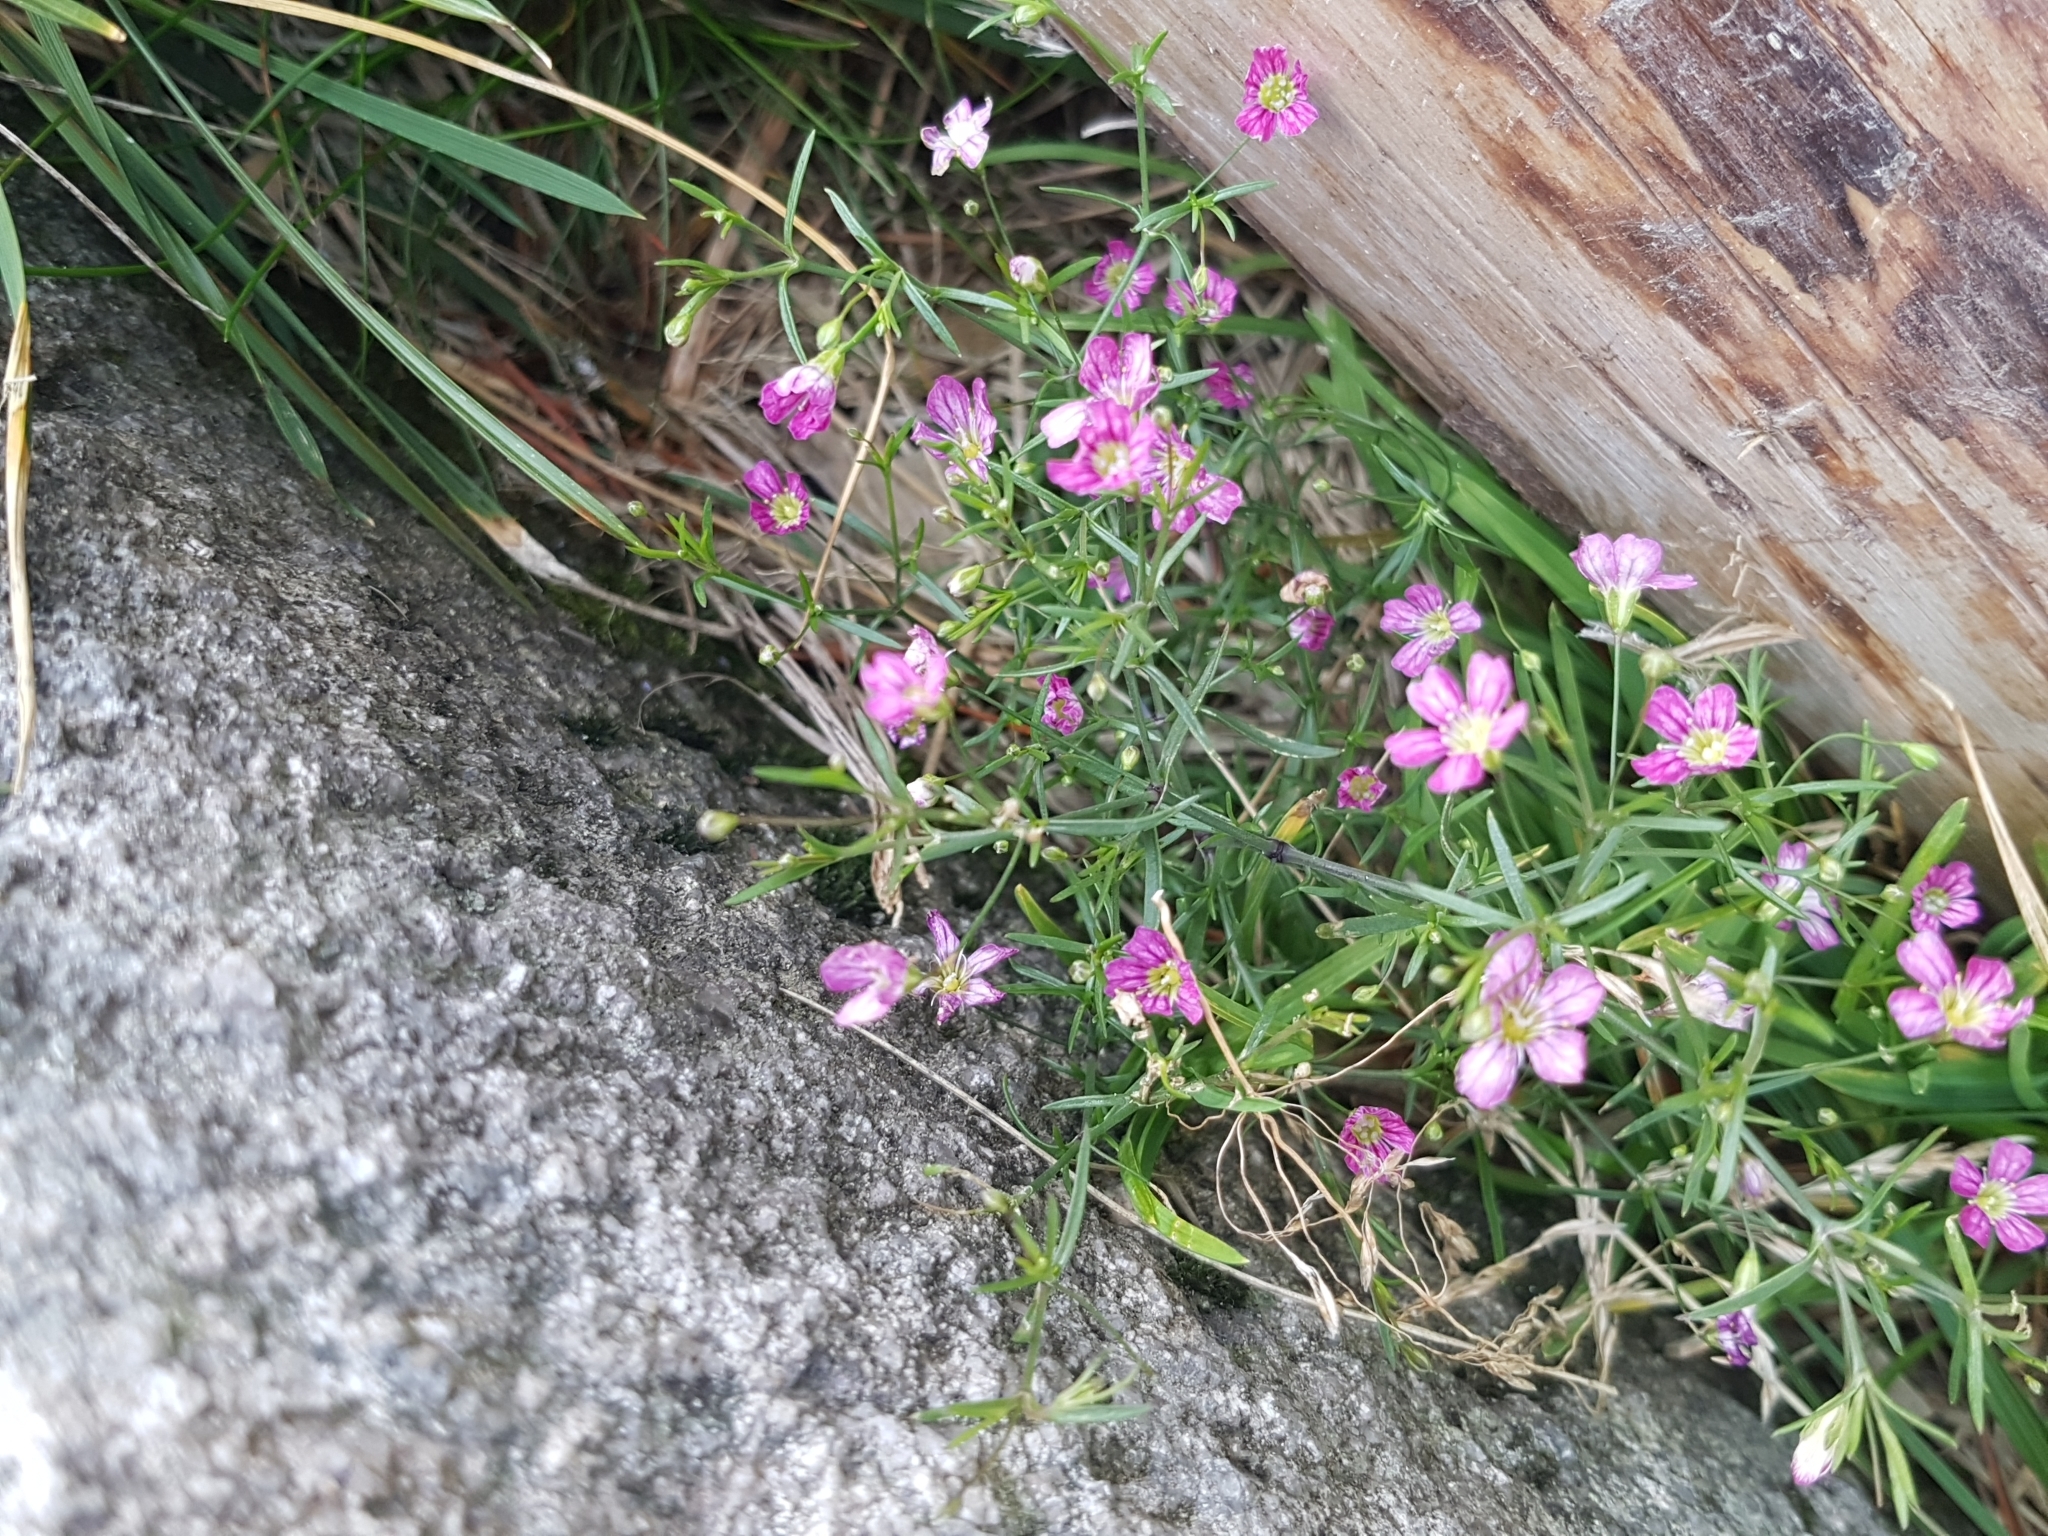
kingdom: Plantae
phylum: Tracheophyta
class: Magnoliopsida
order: Caryophyllales
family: Caryophyllaceae
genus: Psammophiliella
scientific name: Psammophiliella muralis
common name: Cushion baby's-breath
